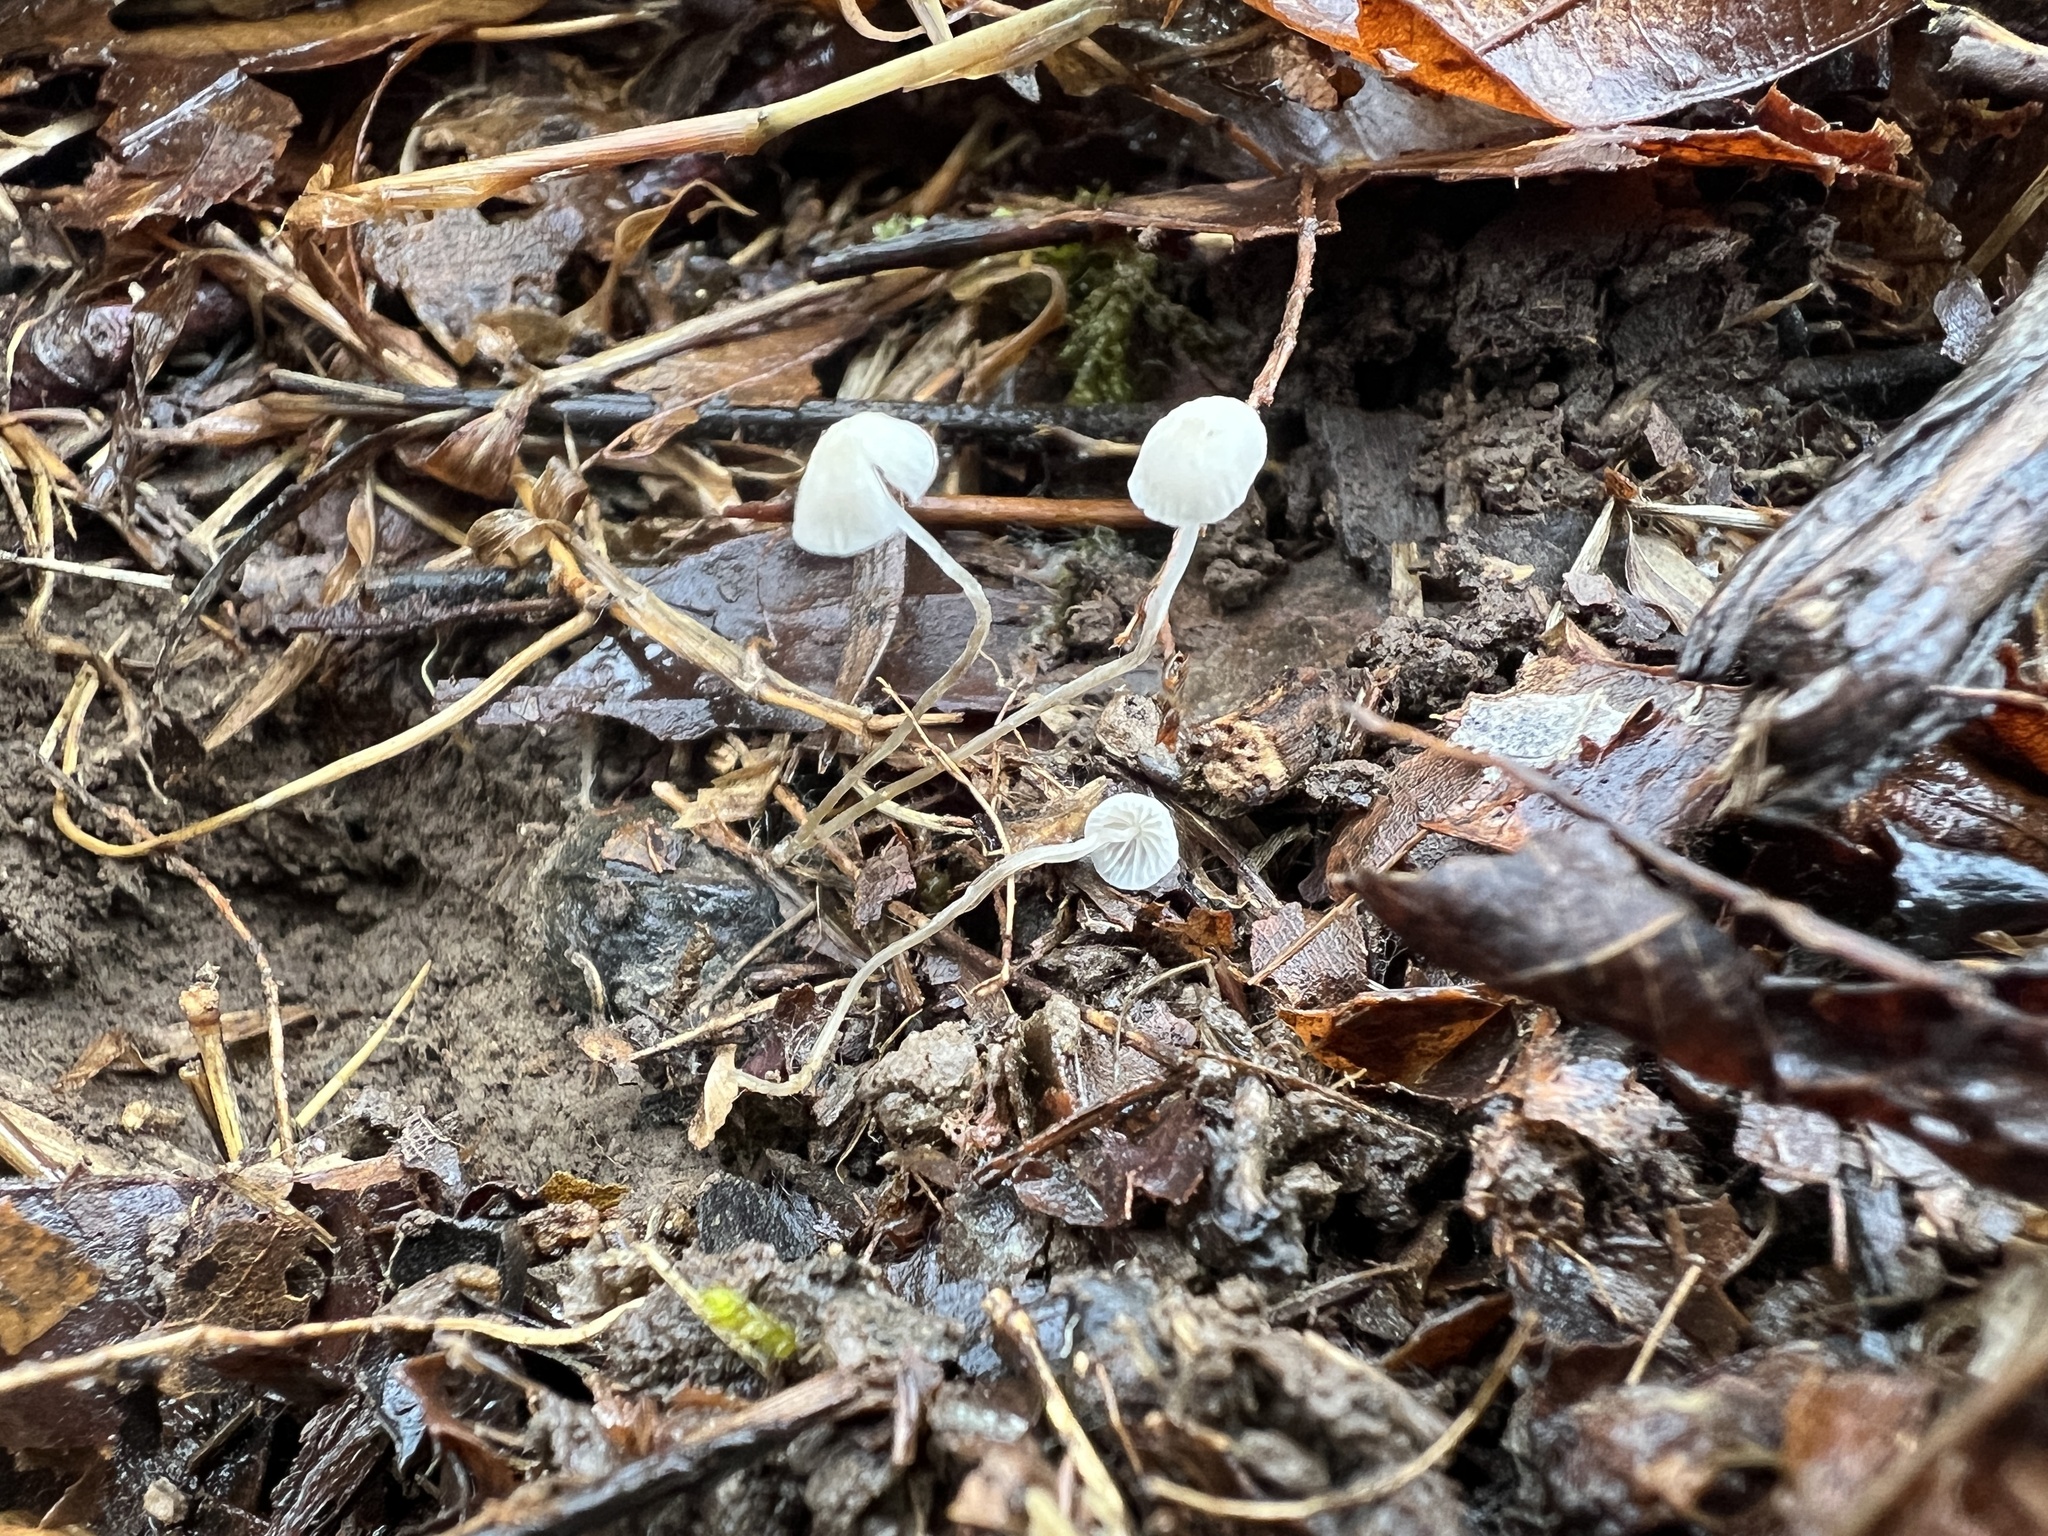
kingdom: Fungi
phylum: Basidiomycota
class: Agaricomycetes
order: Agaricales
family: Mycenaceae
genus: Mycena
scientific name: Mycena mirata
